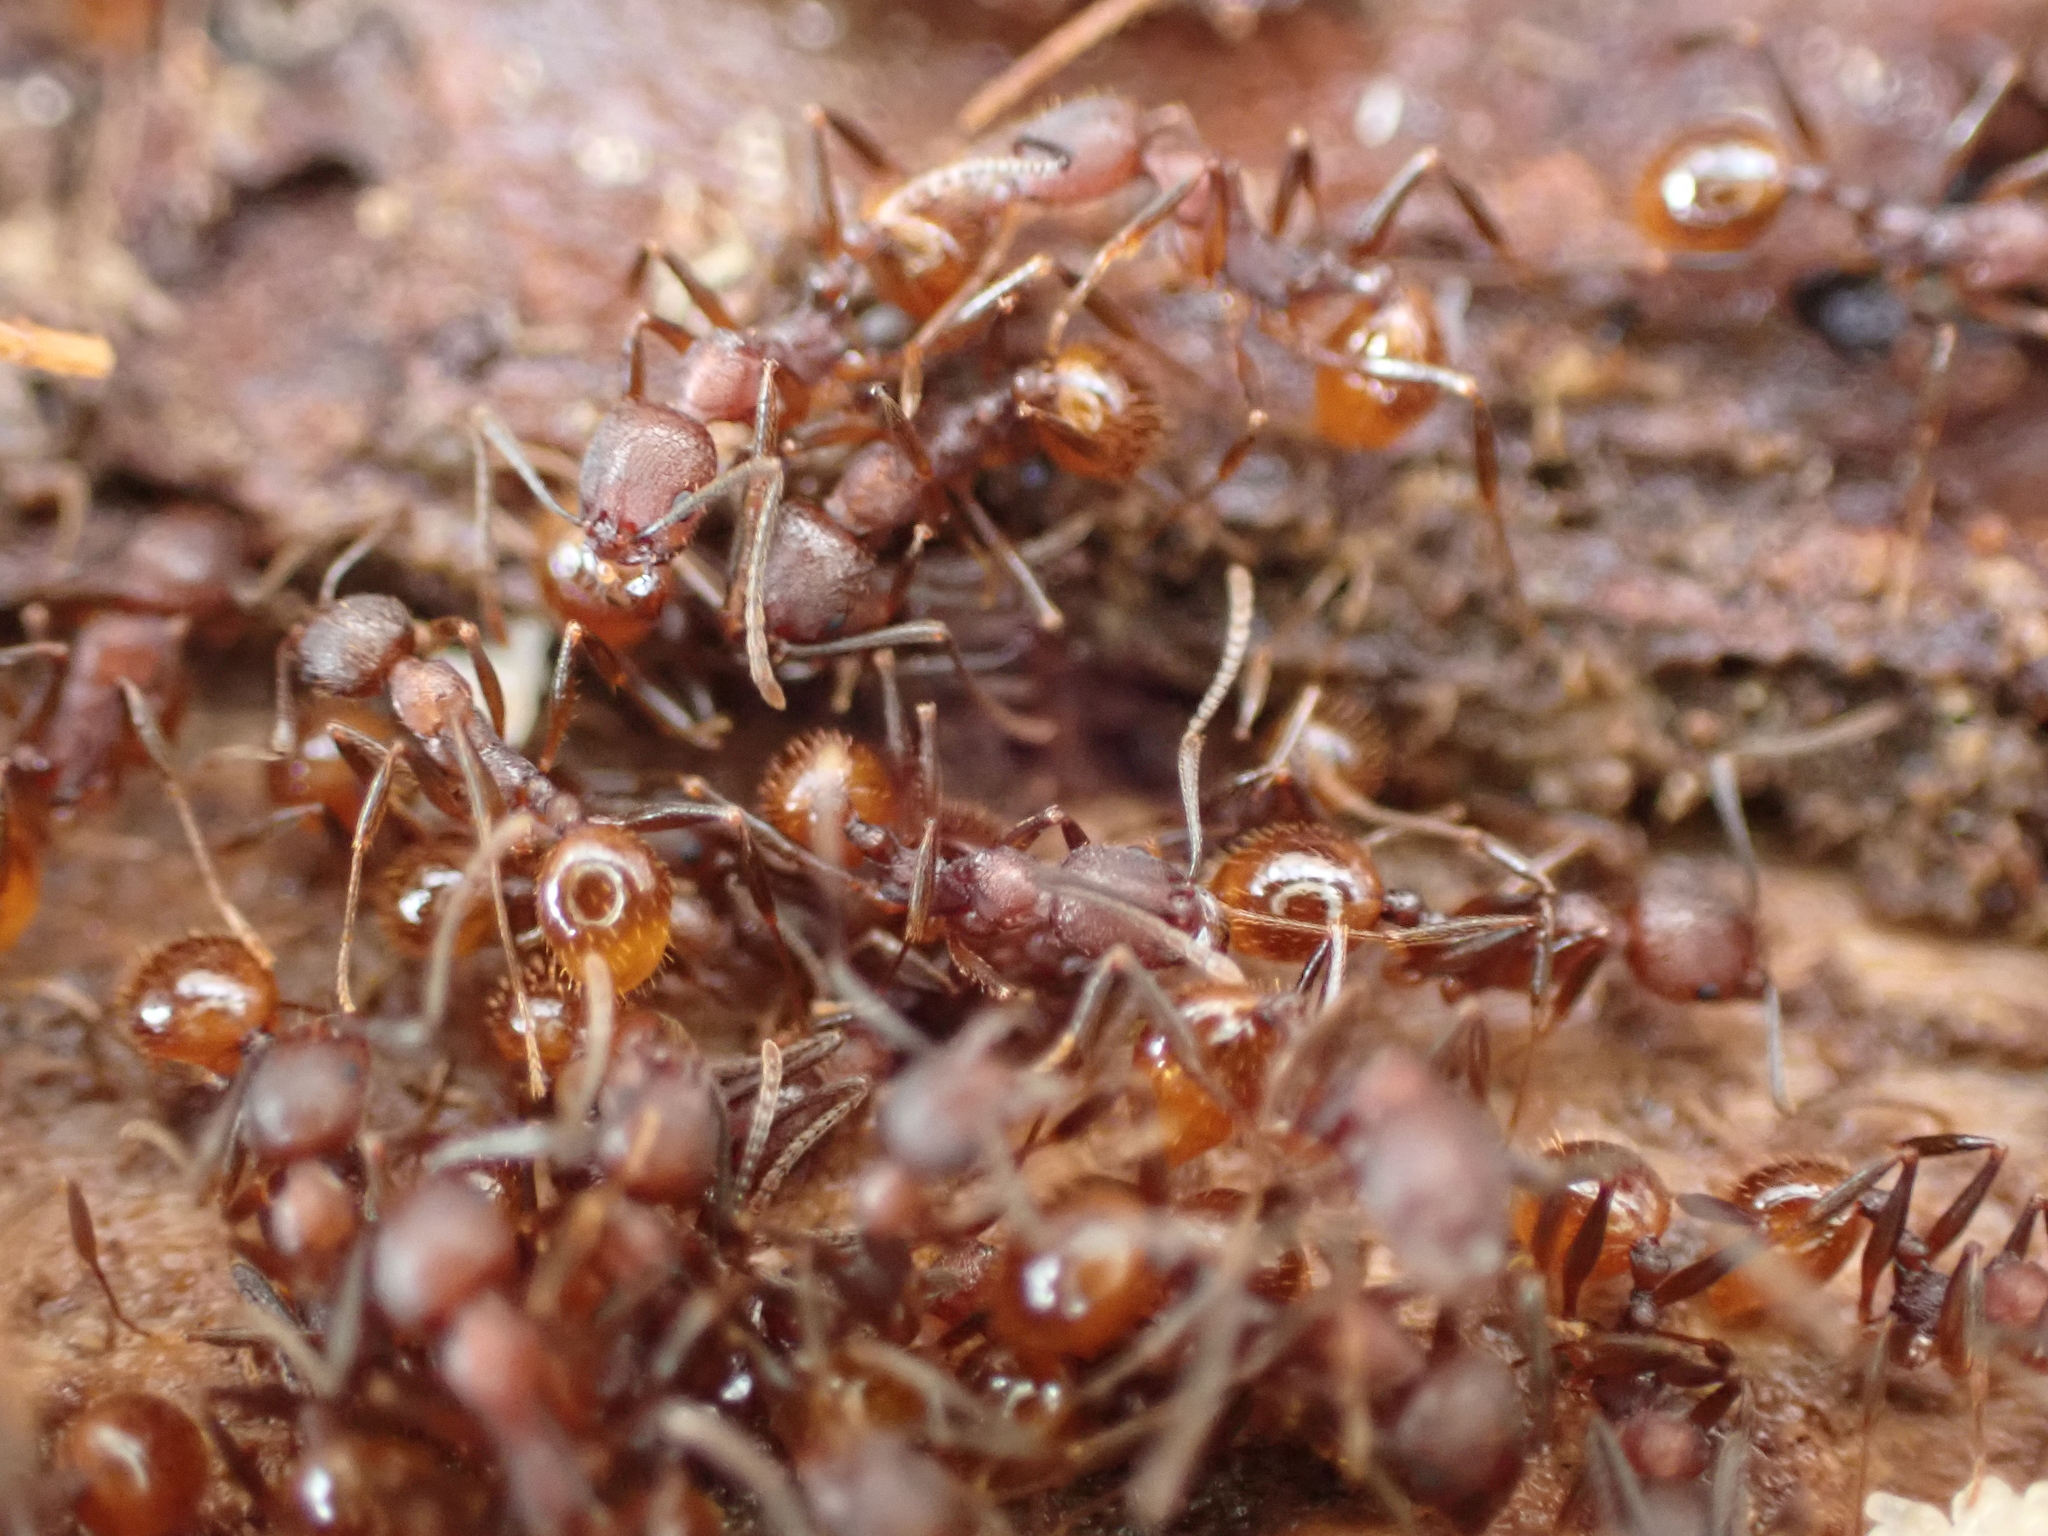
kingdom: Animalia
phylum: Arthropoda
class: Insecta
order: Hymenoptera
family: Formicidae
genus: Aphaenogaster
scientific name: Aphaenogaster fulva
